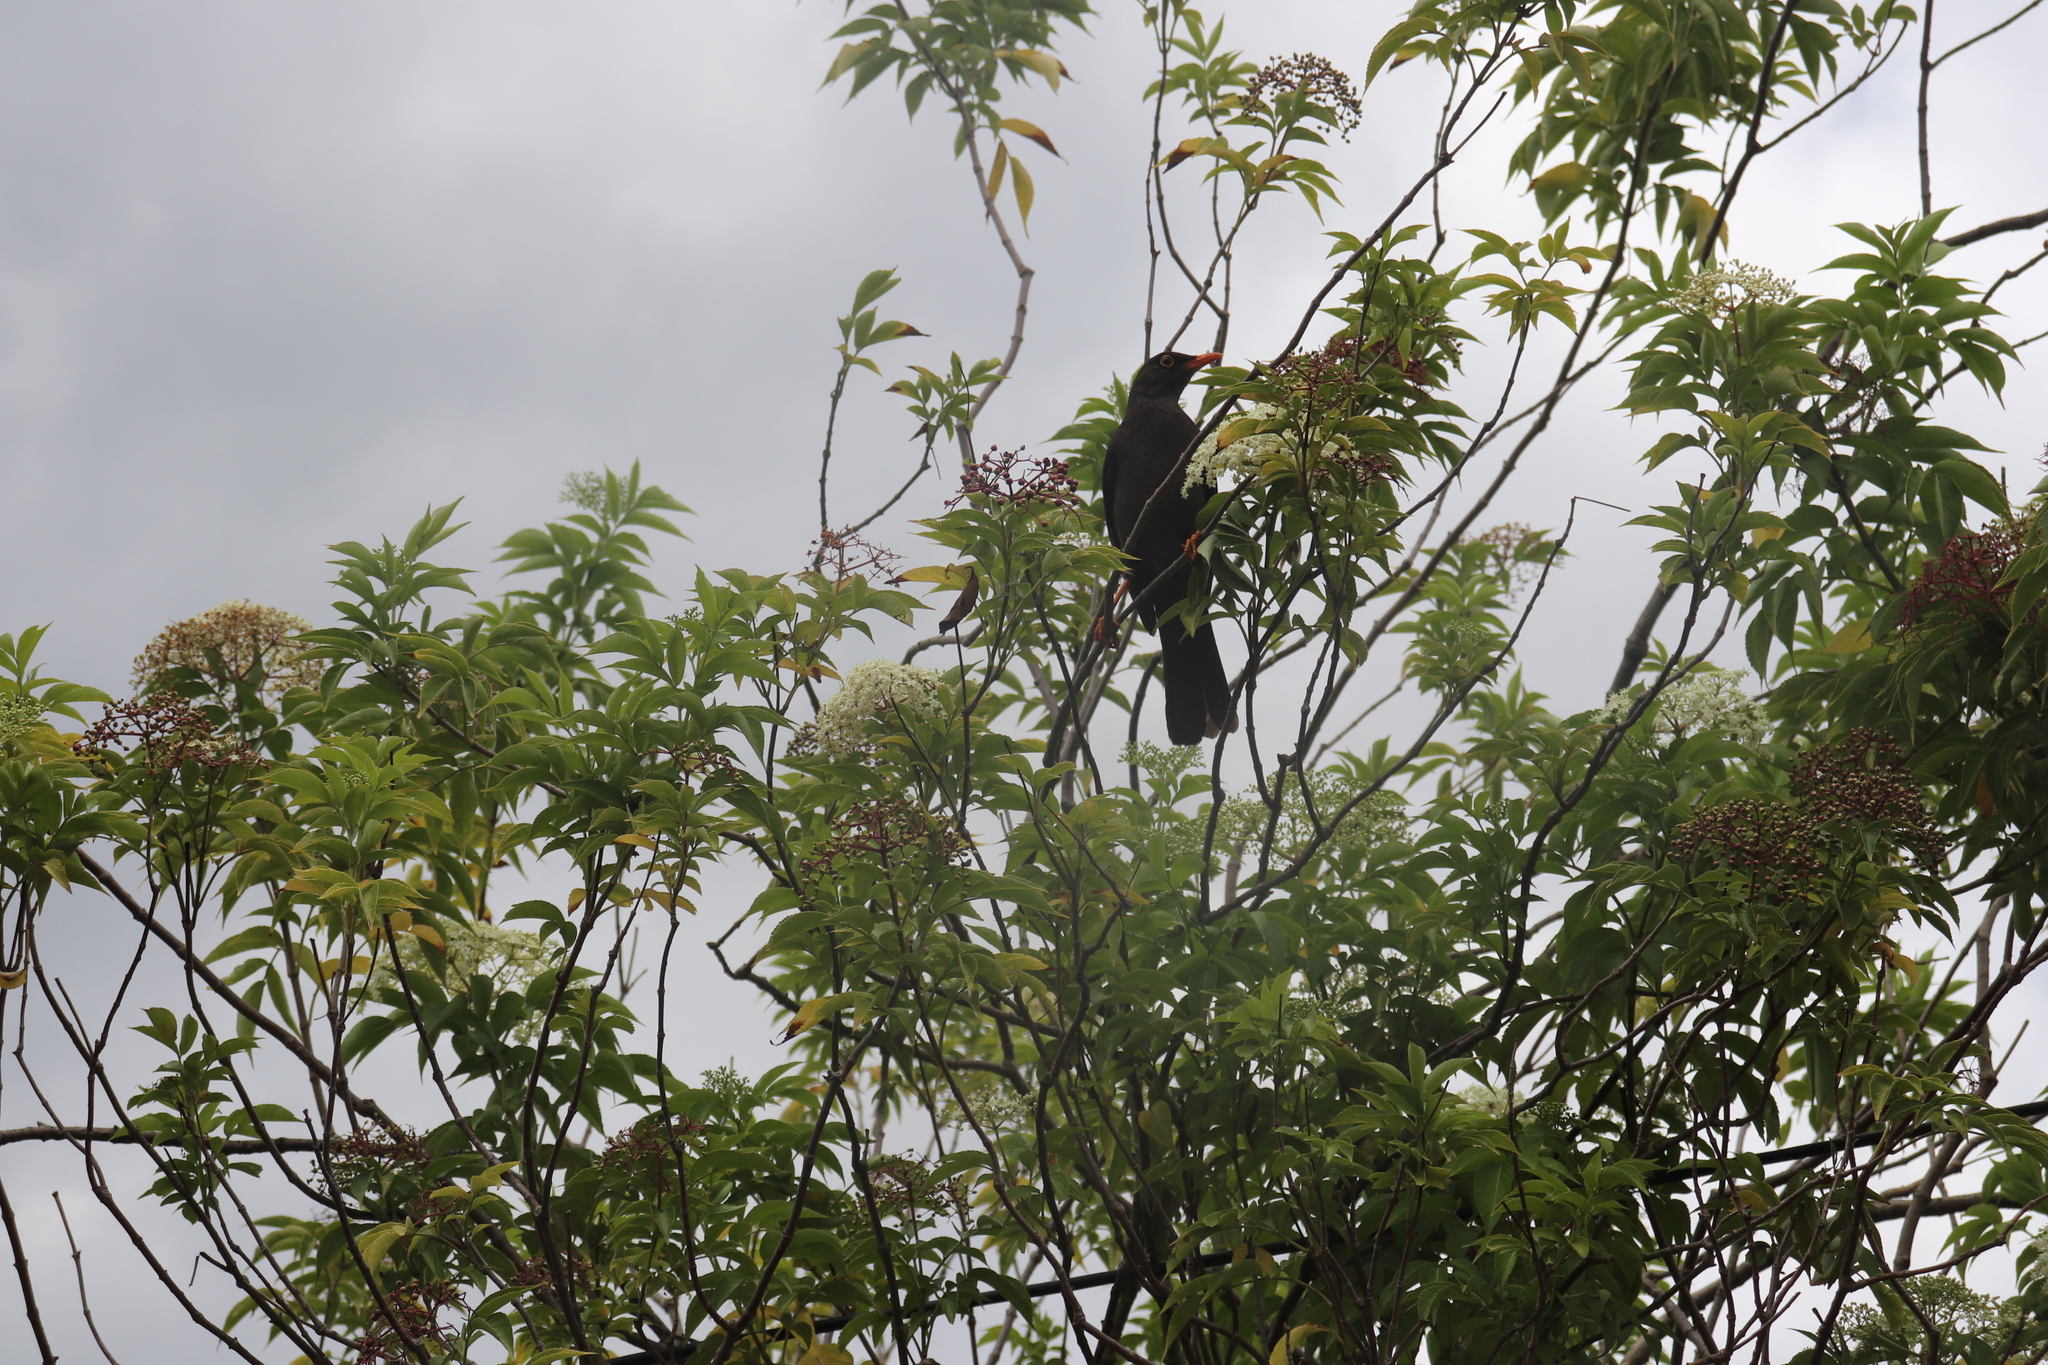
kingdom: Animalia
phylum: Chordata
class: Aves
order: Passeriformes
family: Turdidae
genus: Turdus
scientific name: Turdus fuscater
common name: Great thrush
